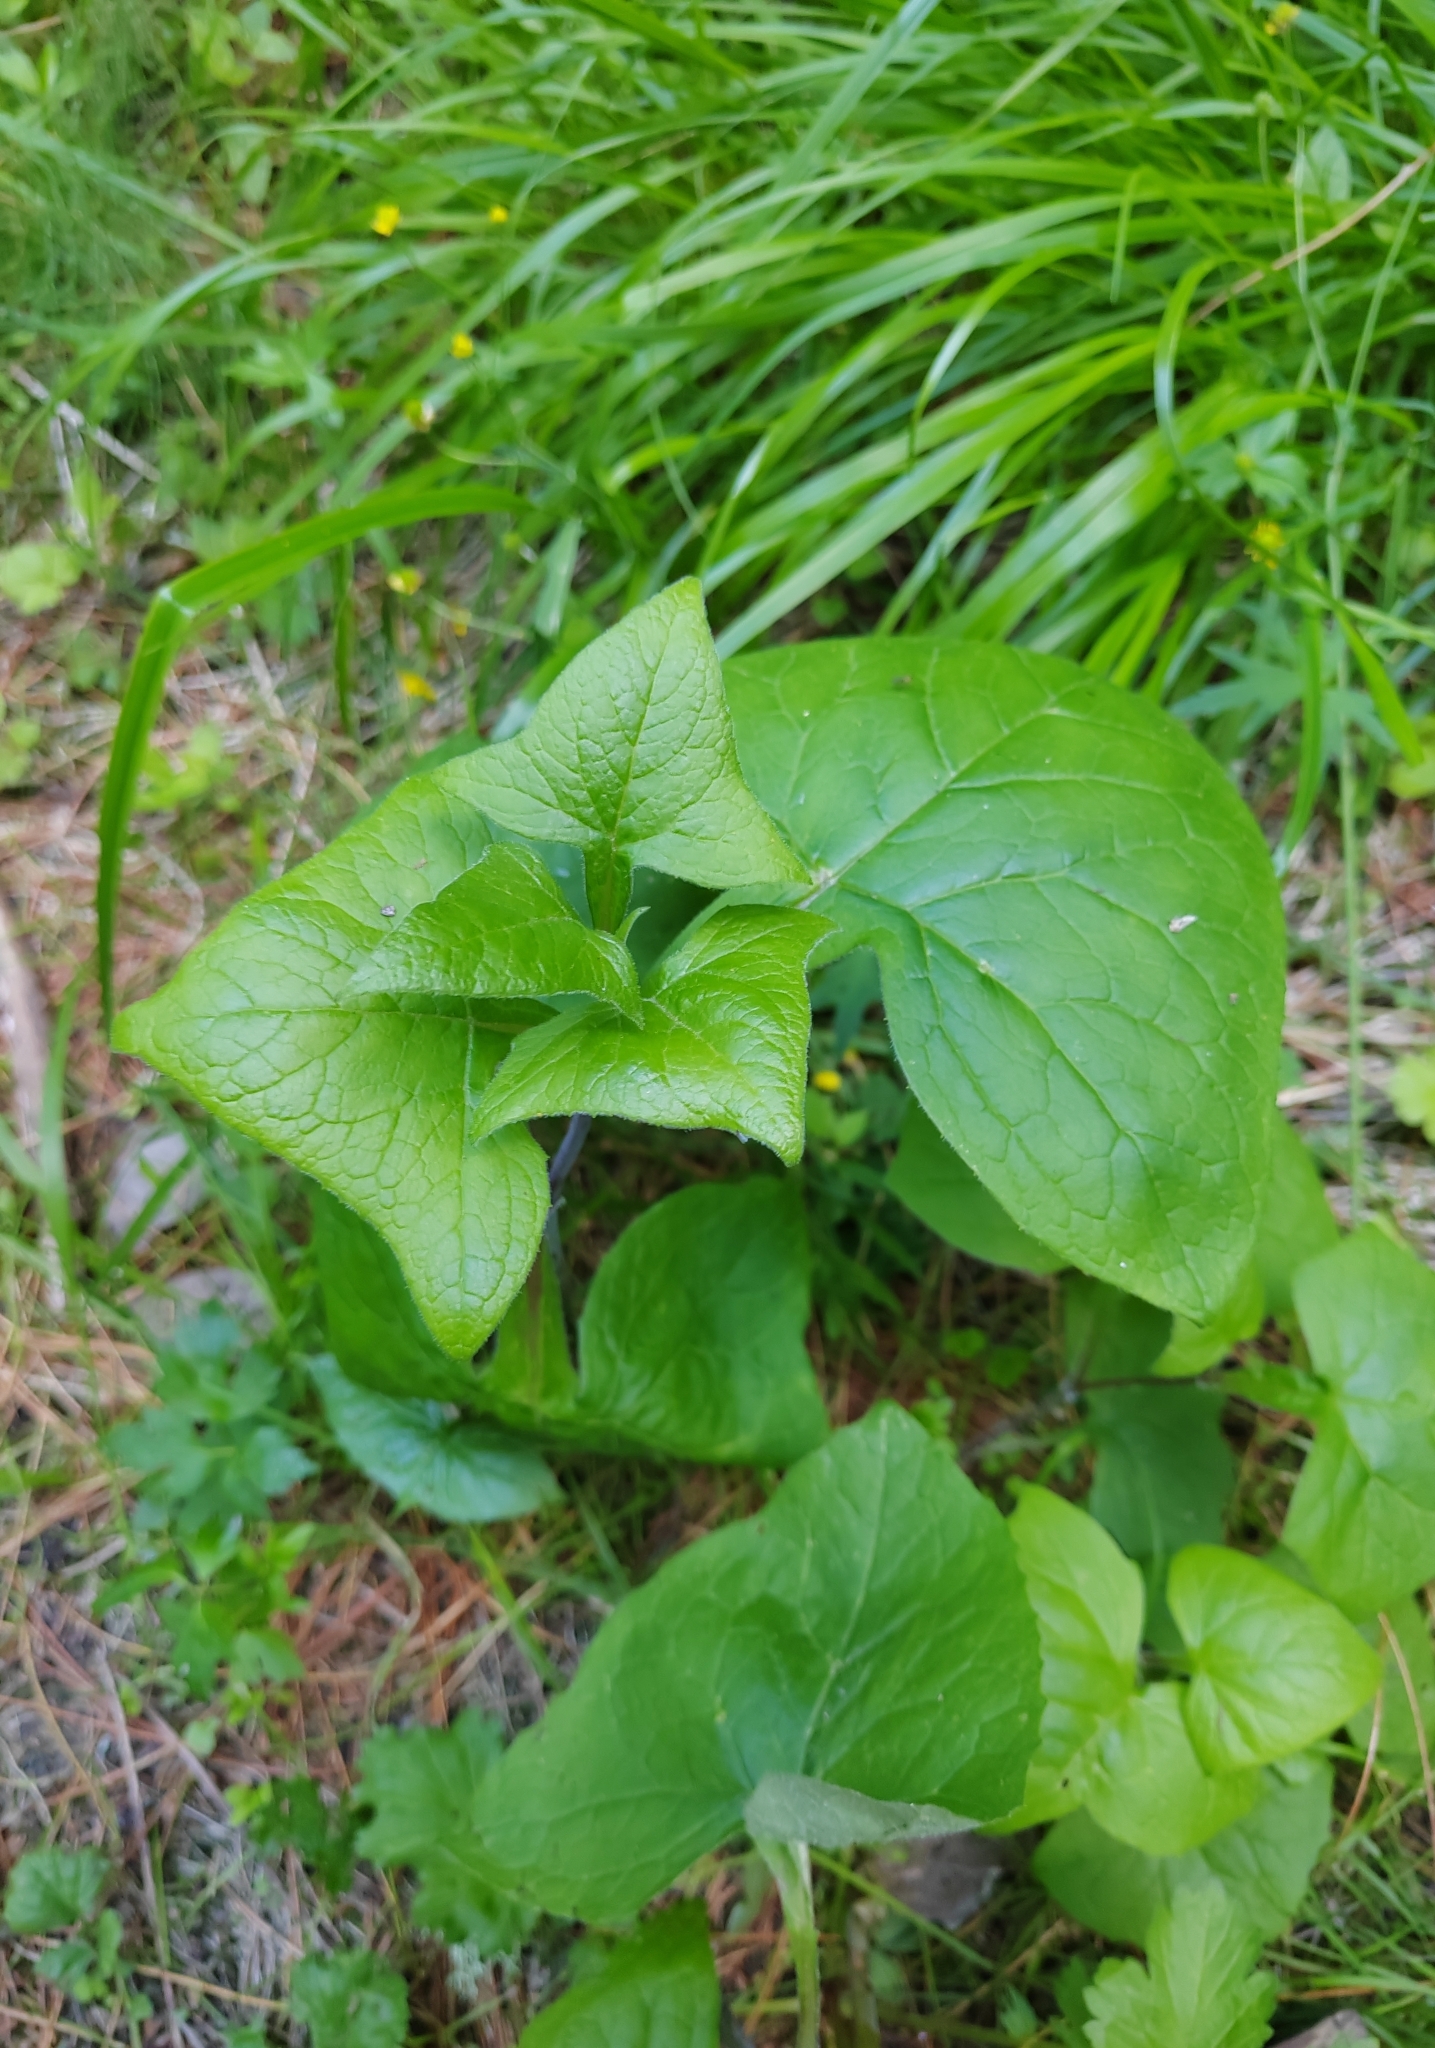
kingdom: Plantae
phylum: Tracheophyta
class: Magnoliopsida
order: Asterales
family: Asteraceae
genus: Parasenecio
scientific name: Parasenecio hastatus
